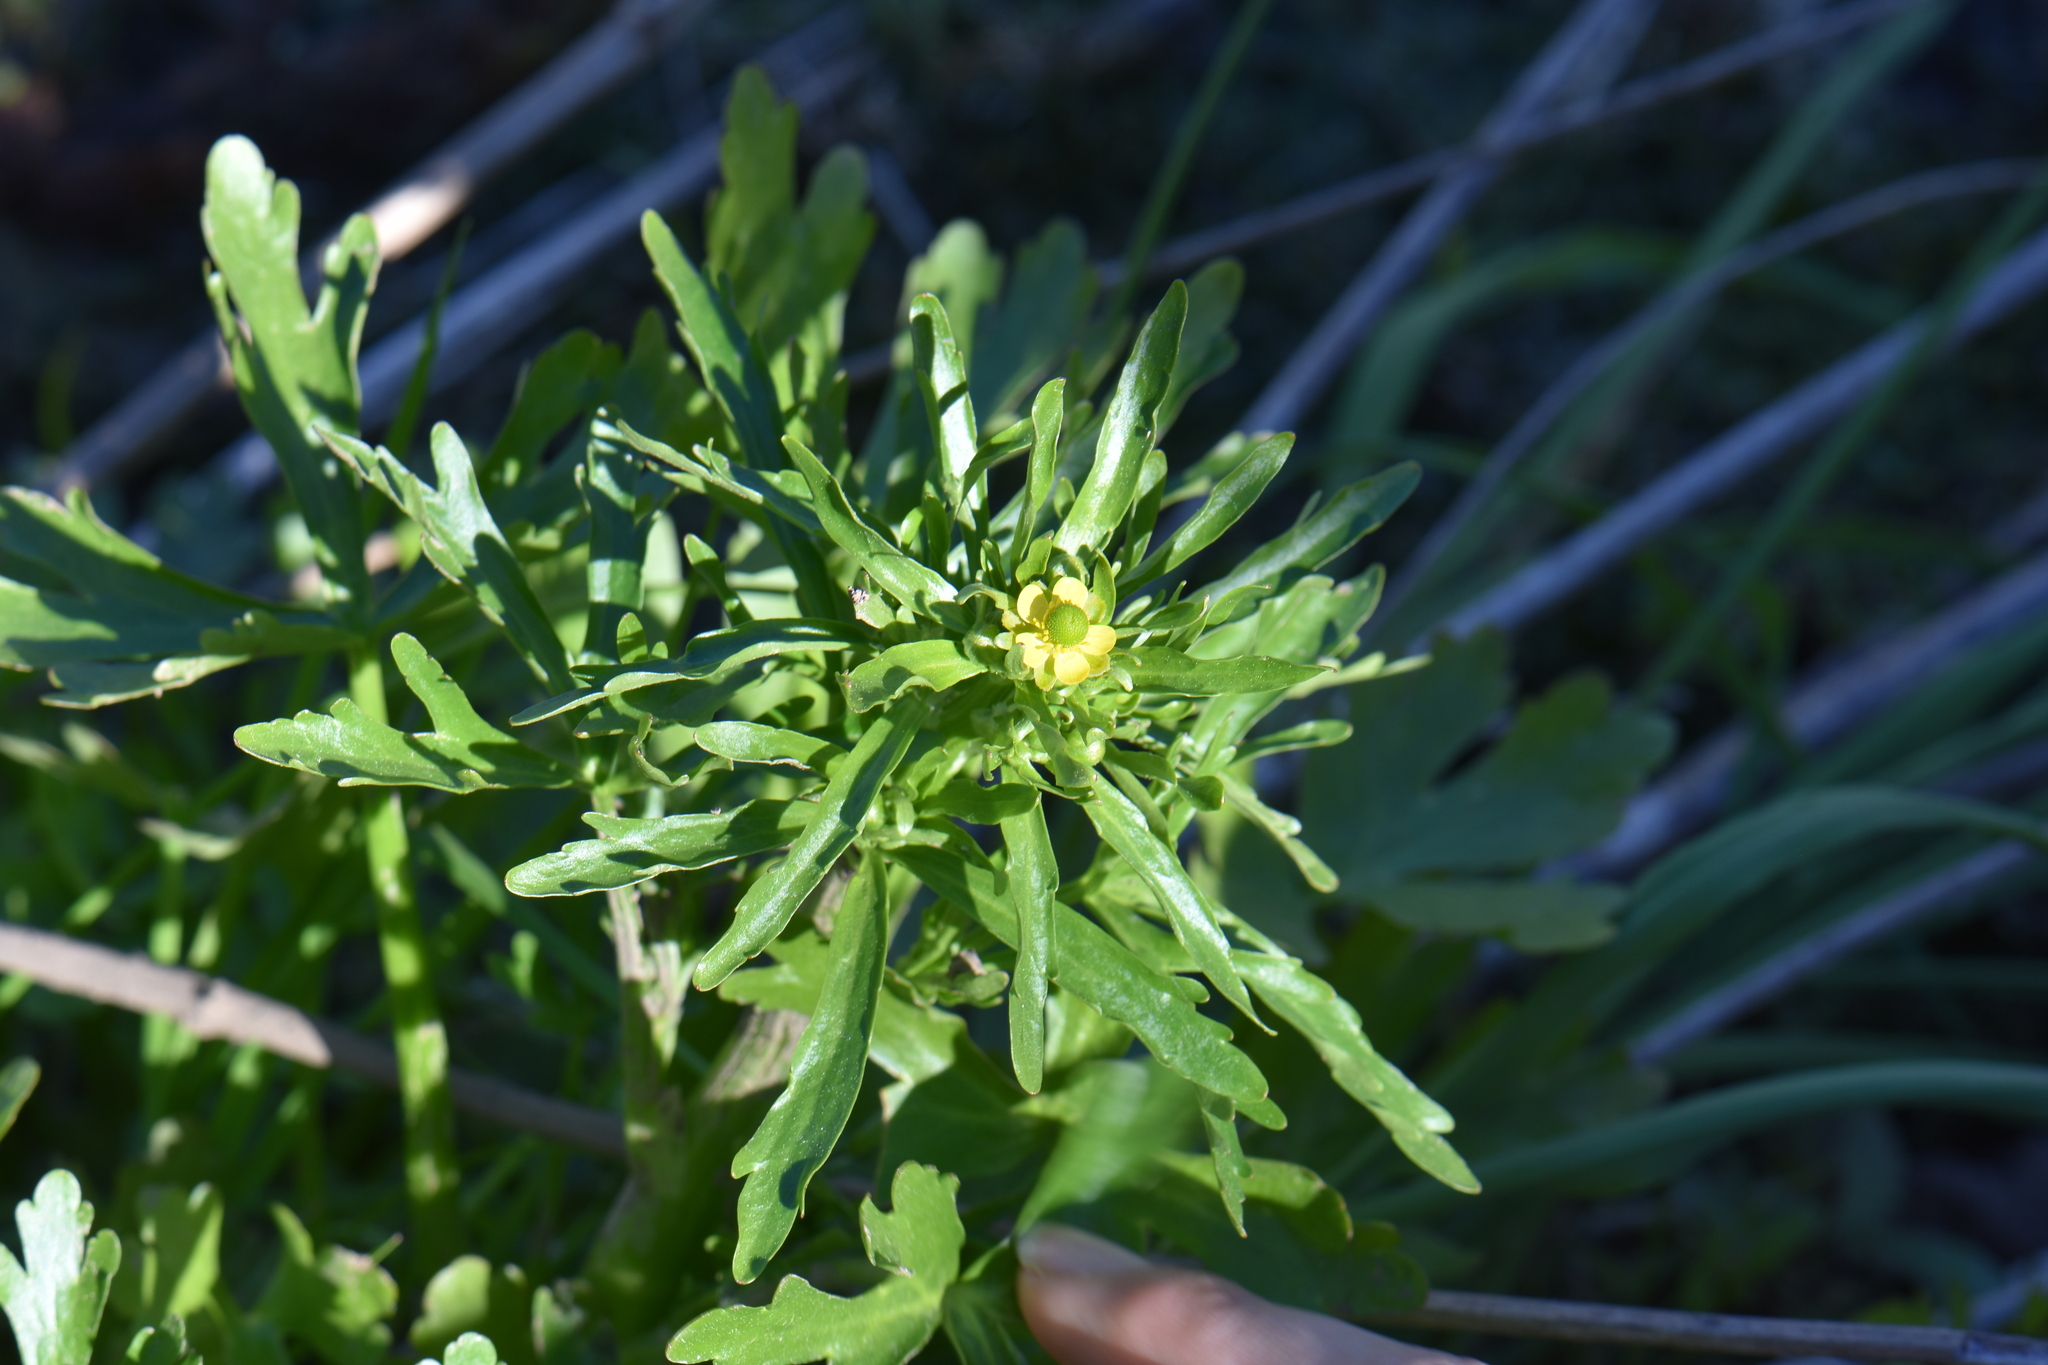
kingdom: Plantae
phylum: Tracheophyta
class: Magnoliopsida
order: Ranunculales
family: Ranunculaceae
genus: Ranunculus
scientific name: Ranunculus sceleratus
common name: Celery-leaved buttercup
